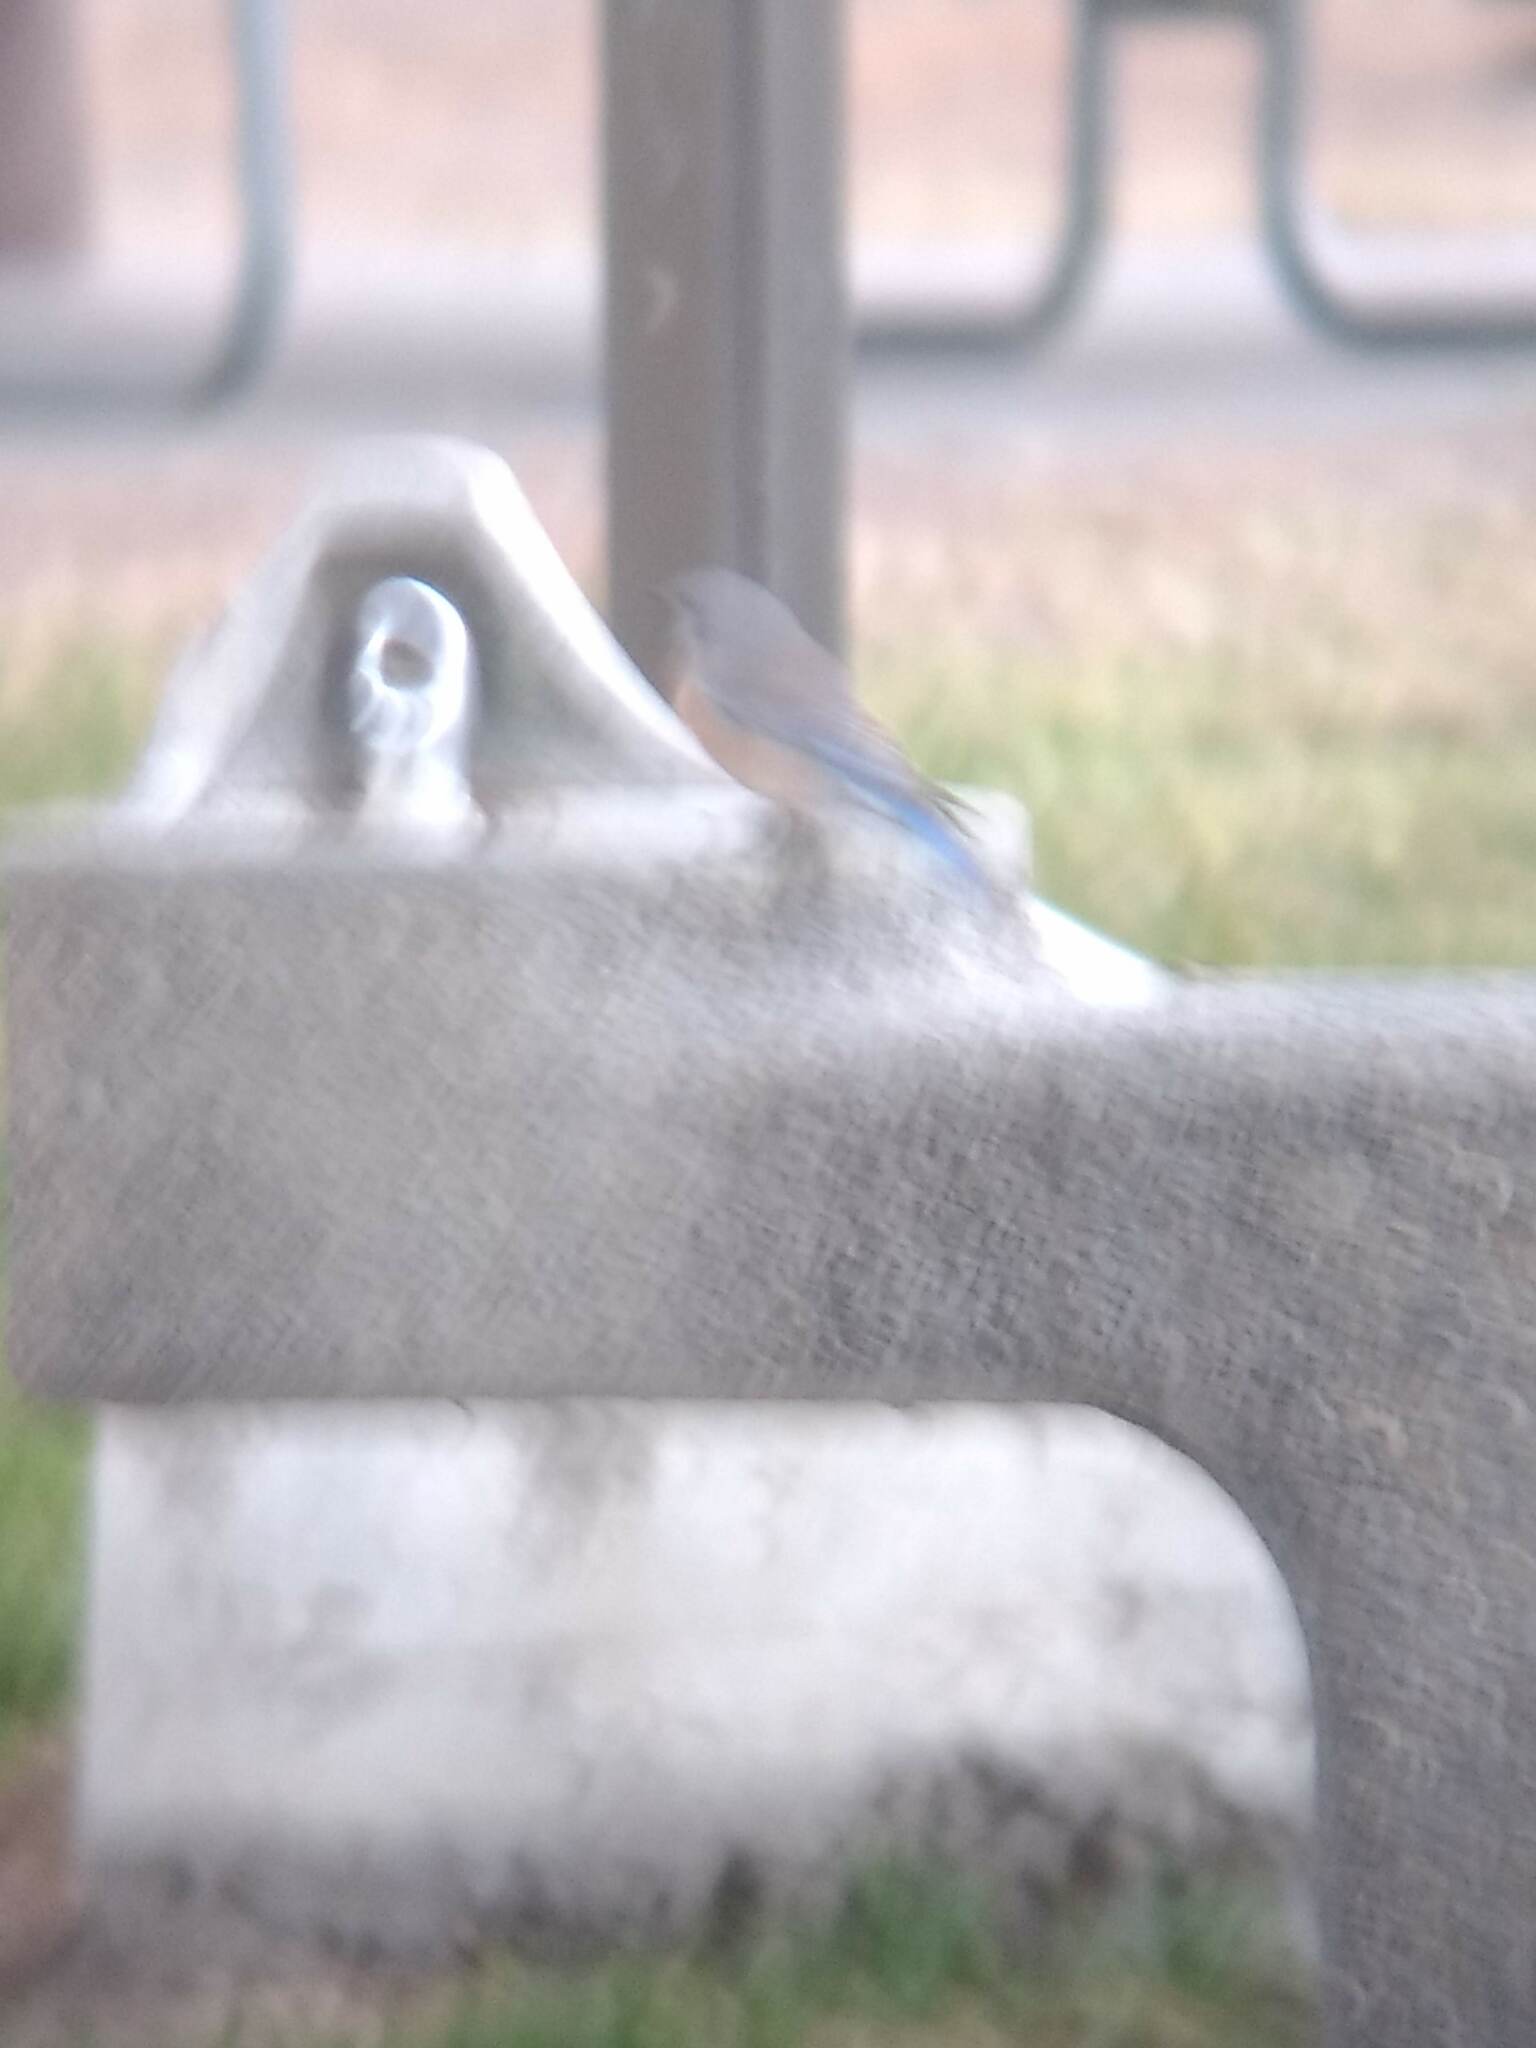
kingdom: Animalia
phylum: Chordata
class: Aves
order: Passeriformes
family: Turdidae
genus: Sialia
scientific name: Sialia mexicana
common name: Western bluebird
